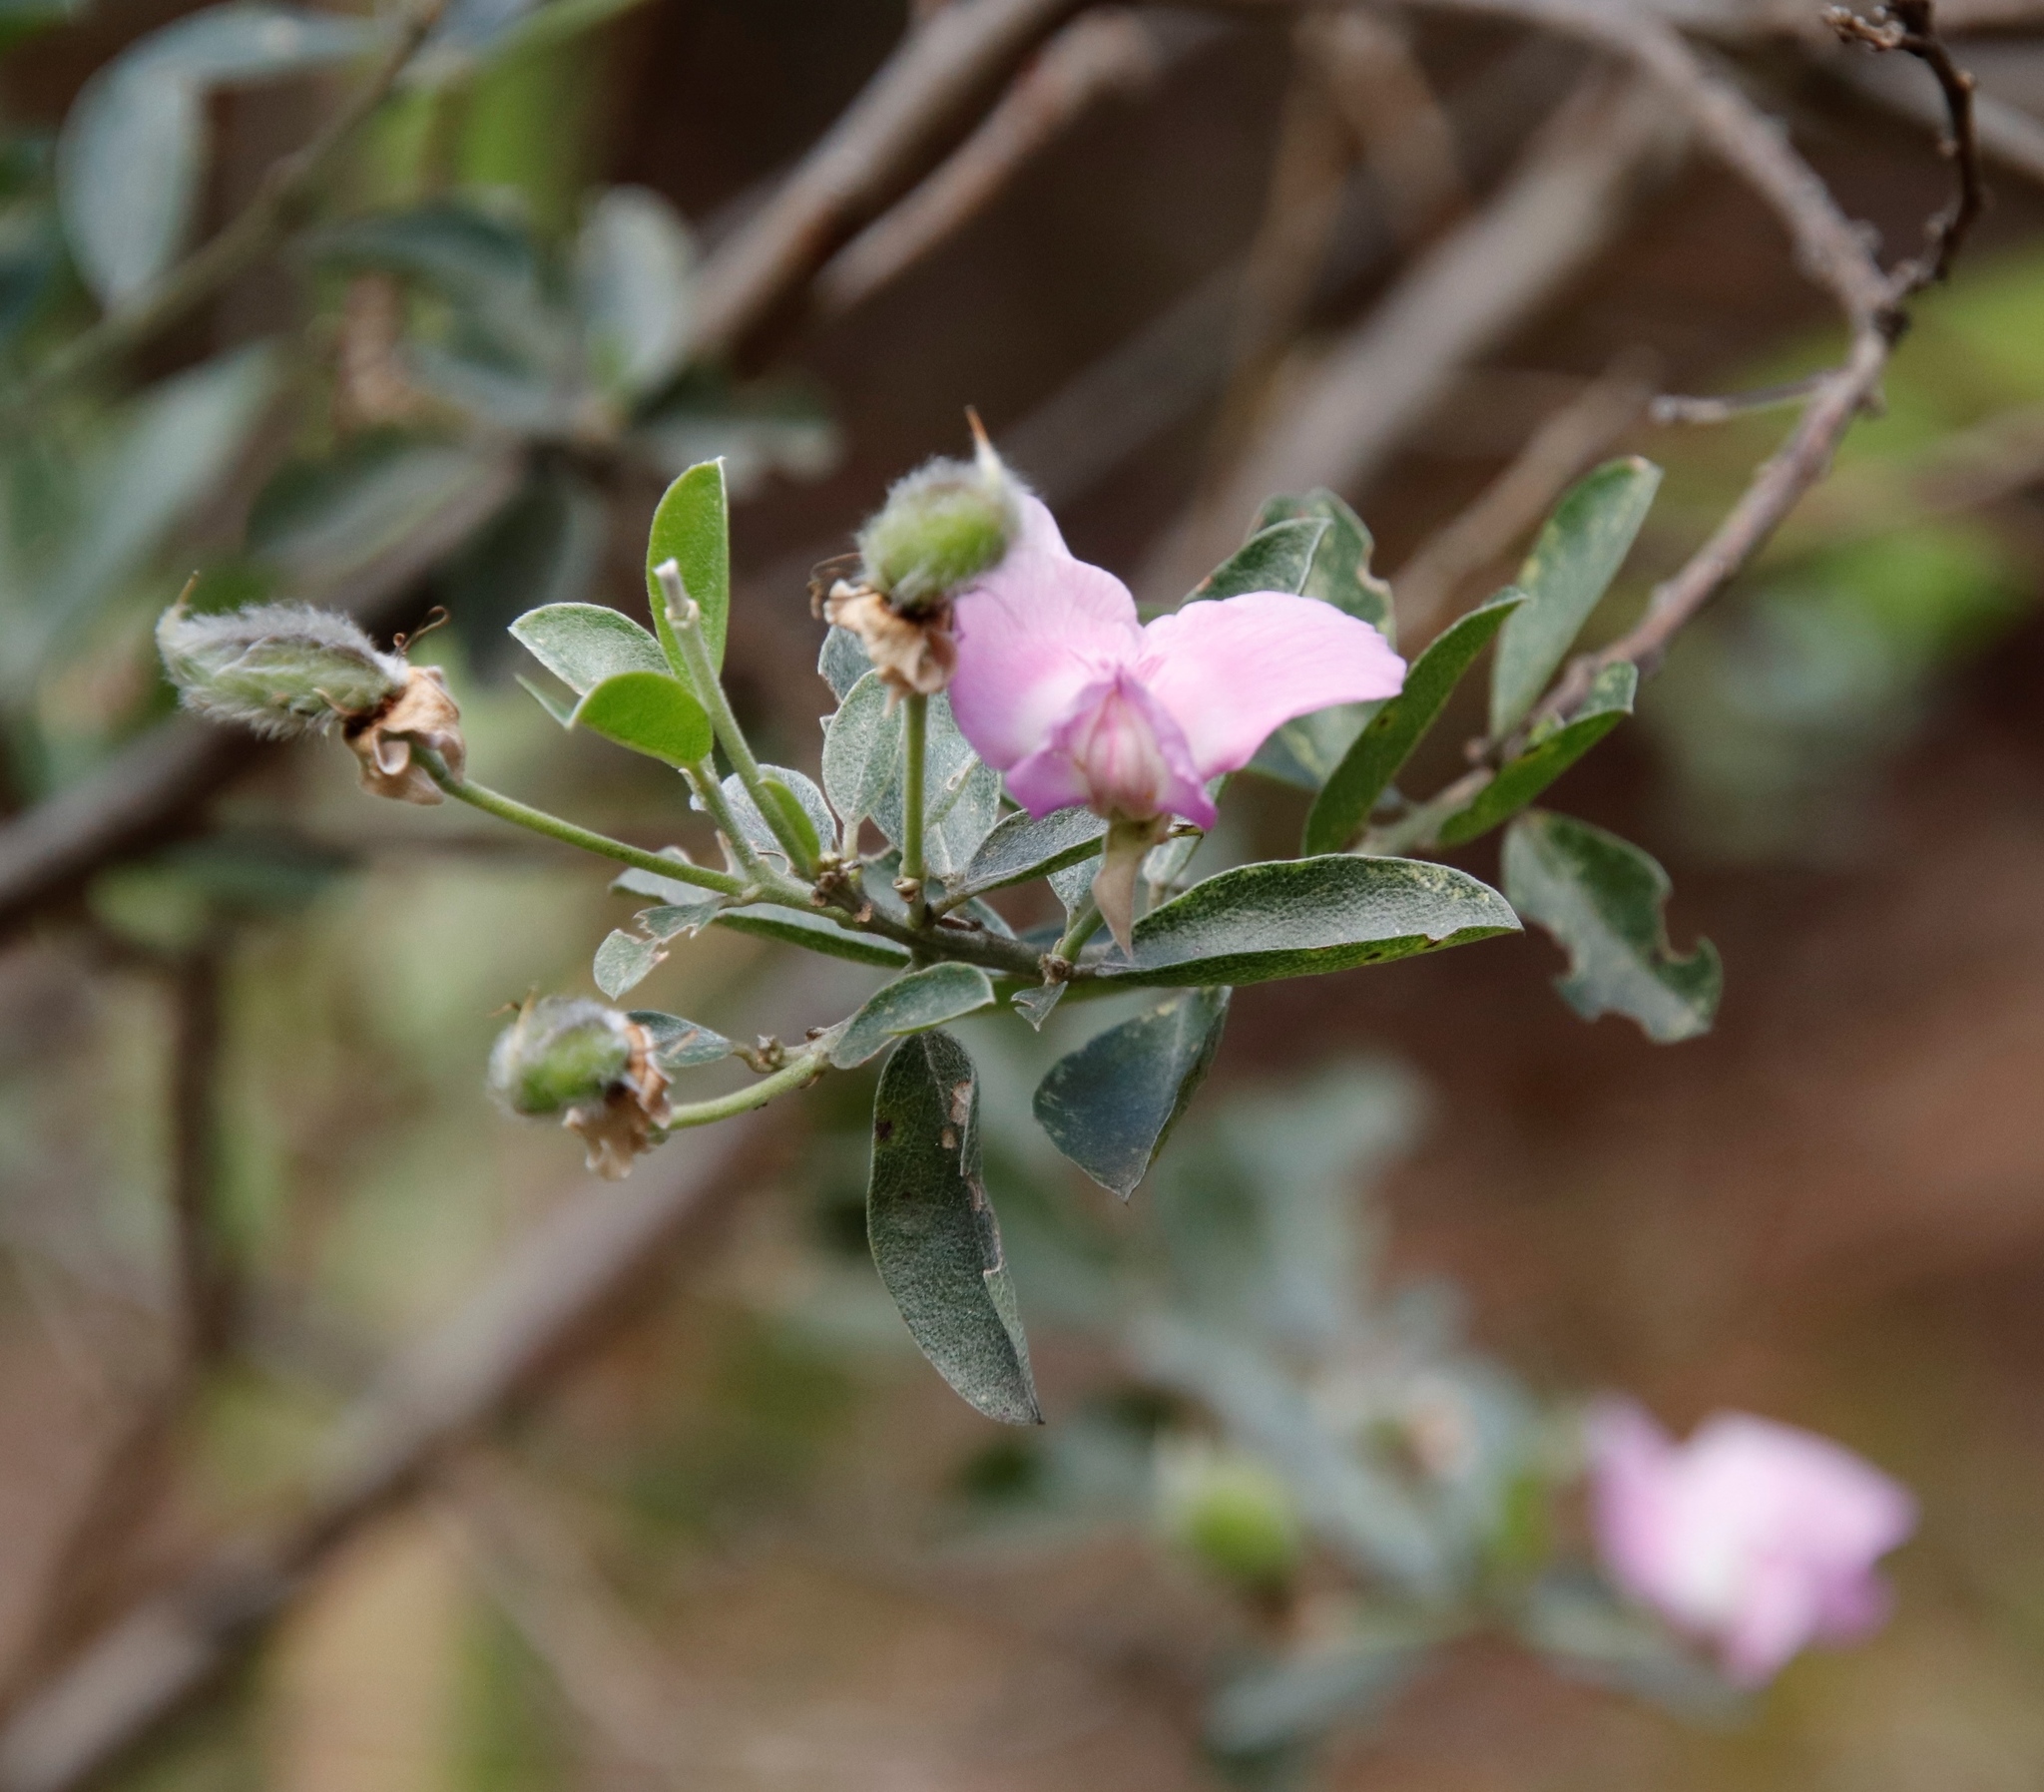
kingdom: Plantae
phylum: Tracheophyta
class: Magnoliopsida
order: Fabales
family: Fabaceae
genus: Podalyria
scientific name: Podalyria calyptrata
